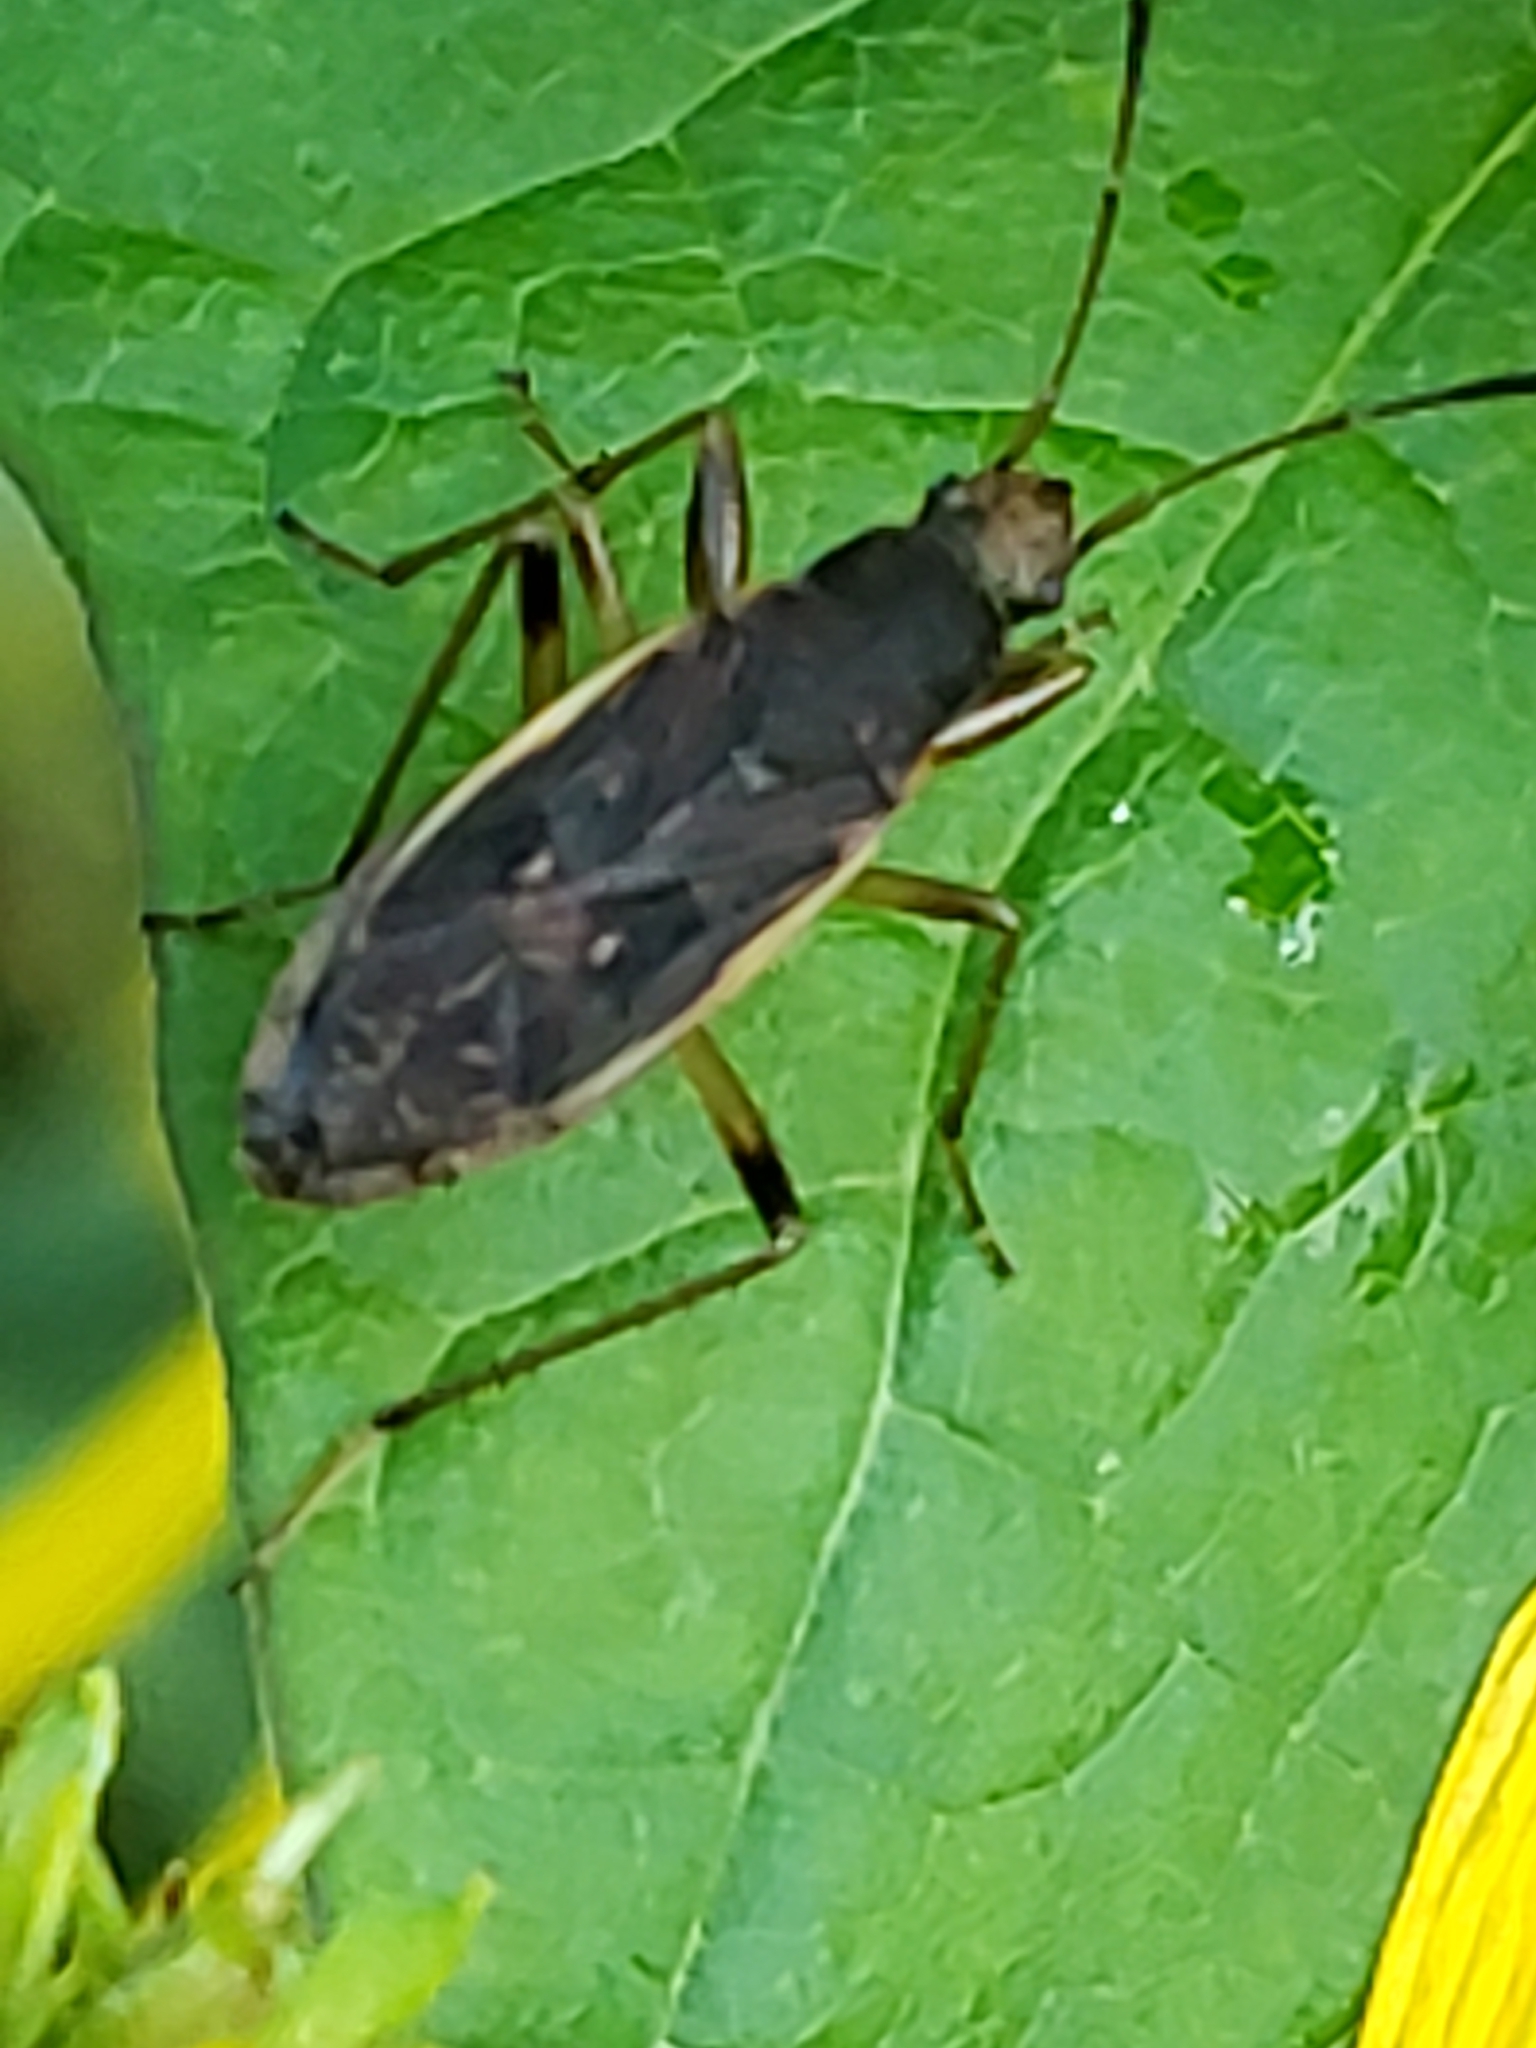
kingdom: Animalia
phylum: Arthropoda
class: Insecta
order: Hemiptera
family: Rhyparochromidae
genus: Ligyrocoris
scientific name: Ligyrocoris obscurus
